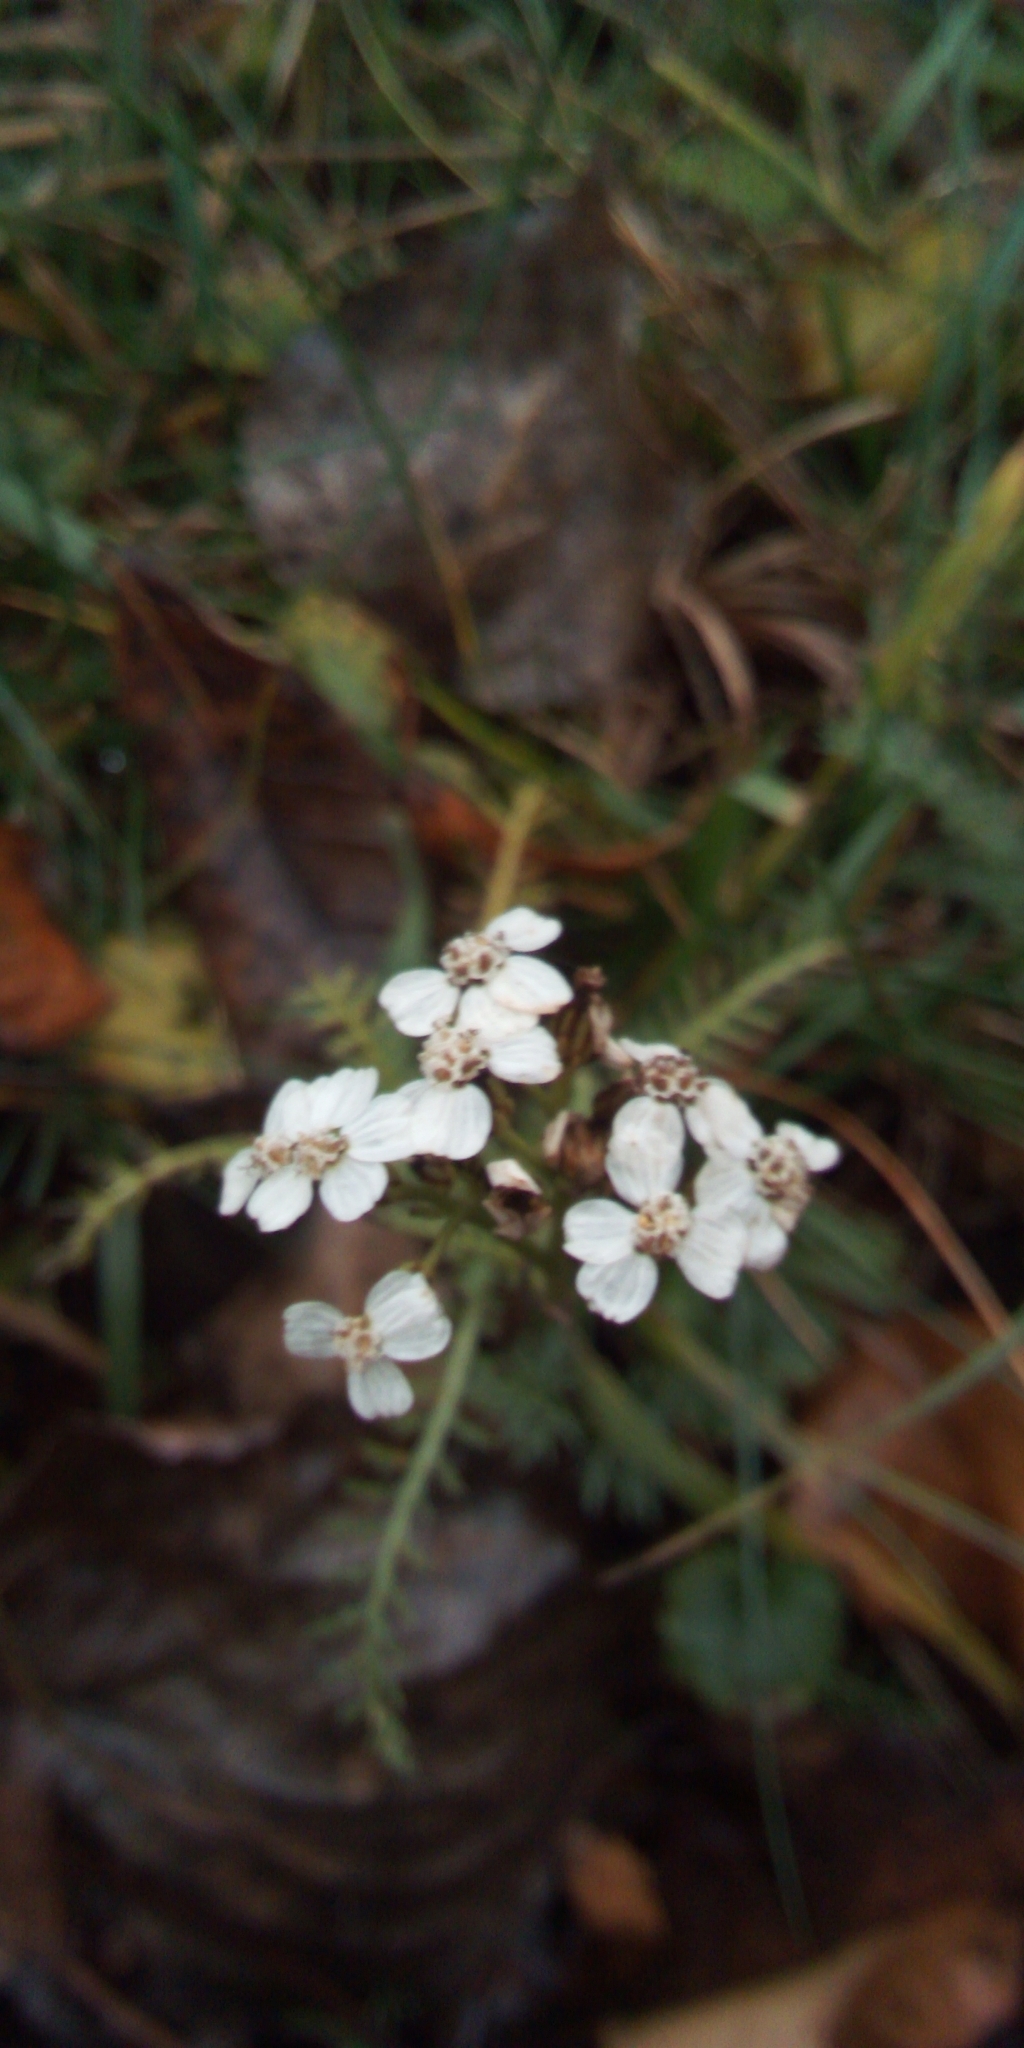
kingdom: Plantae
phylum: Tracheophyta
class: Magnoliopsida
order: Asterales
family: Asteraceae
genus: Achillea
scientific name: Achillea millefolium
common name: Yarrow
